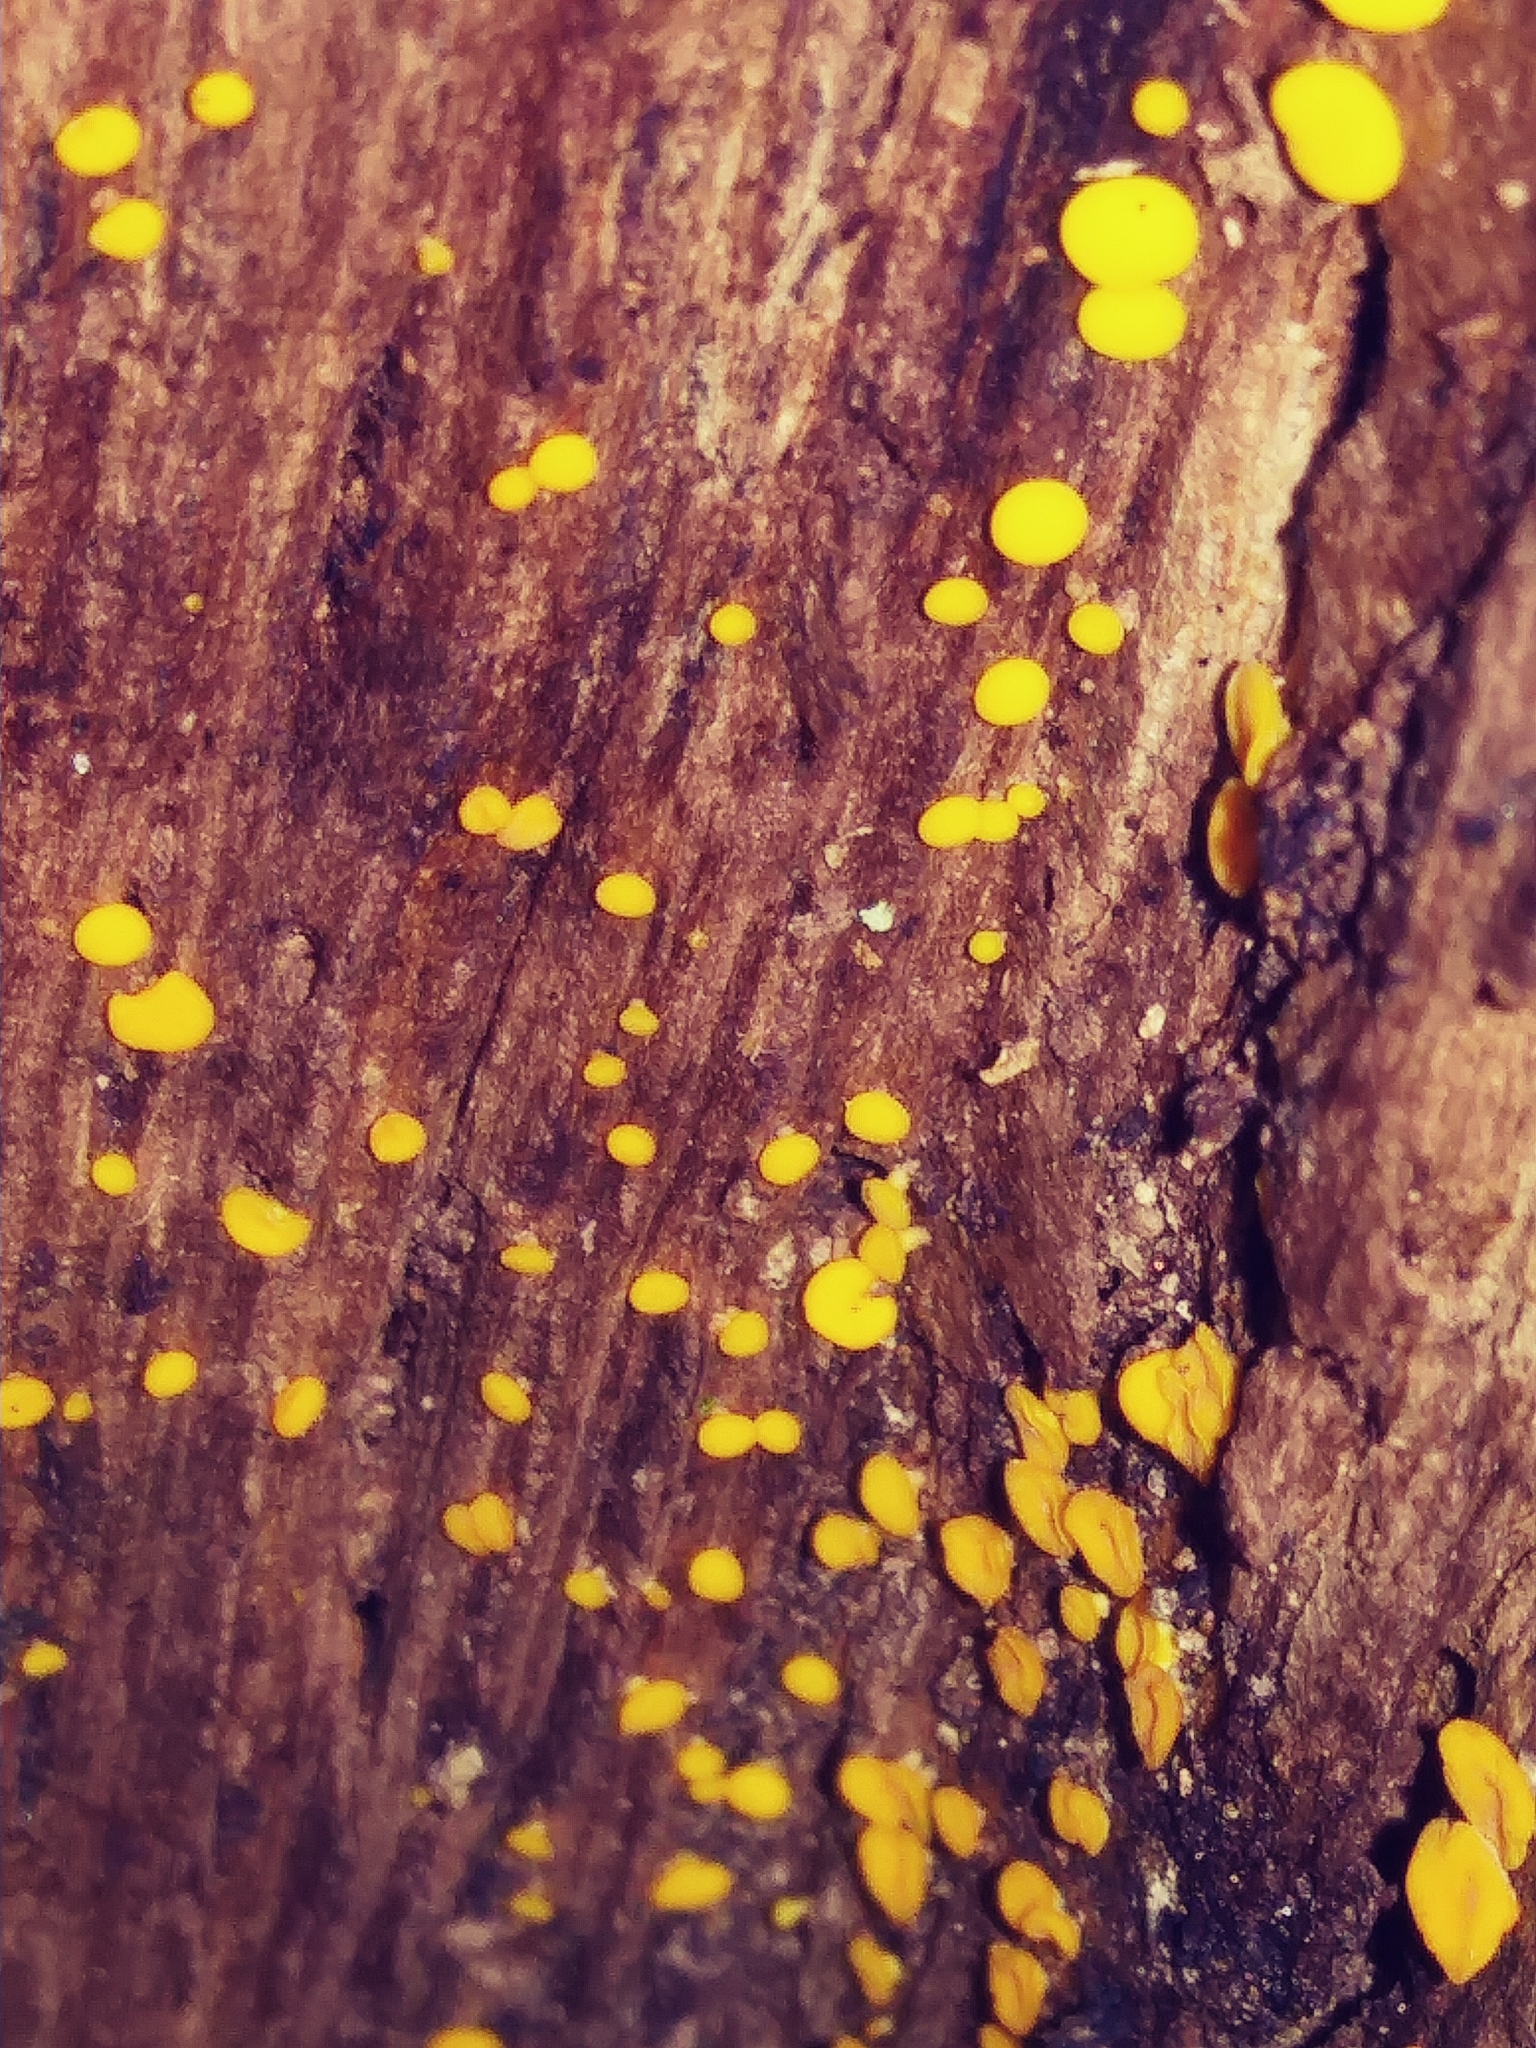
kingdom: Fungi
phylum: Ascomycota
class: Leotiomycetes
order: Helotiales
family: Pezizellaceae
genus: Calycina
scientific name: Calycina citrina
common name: Yellow fairy cups
